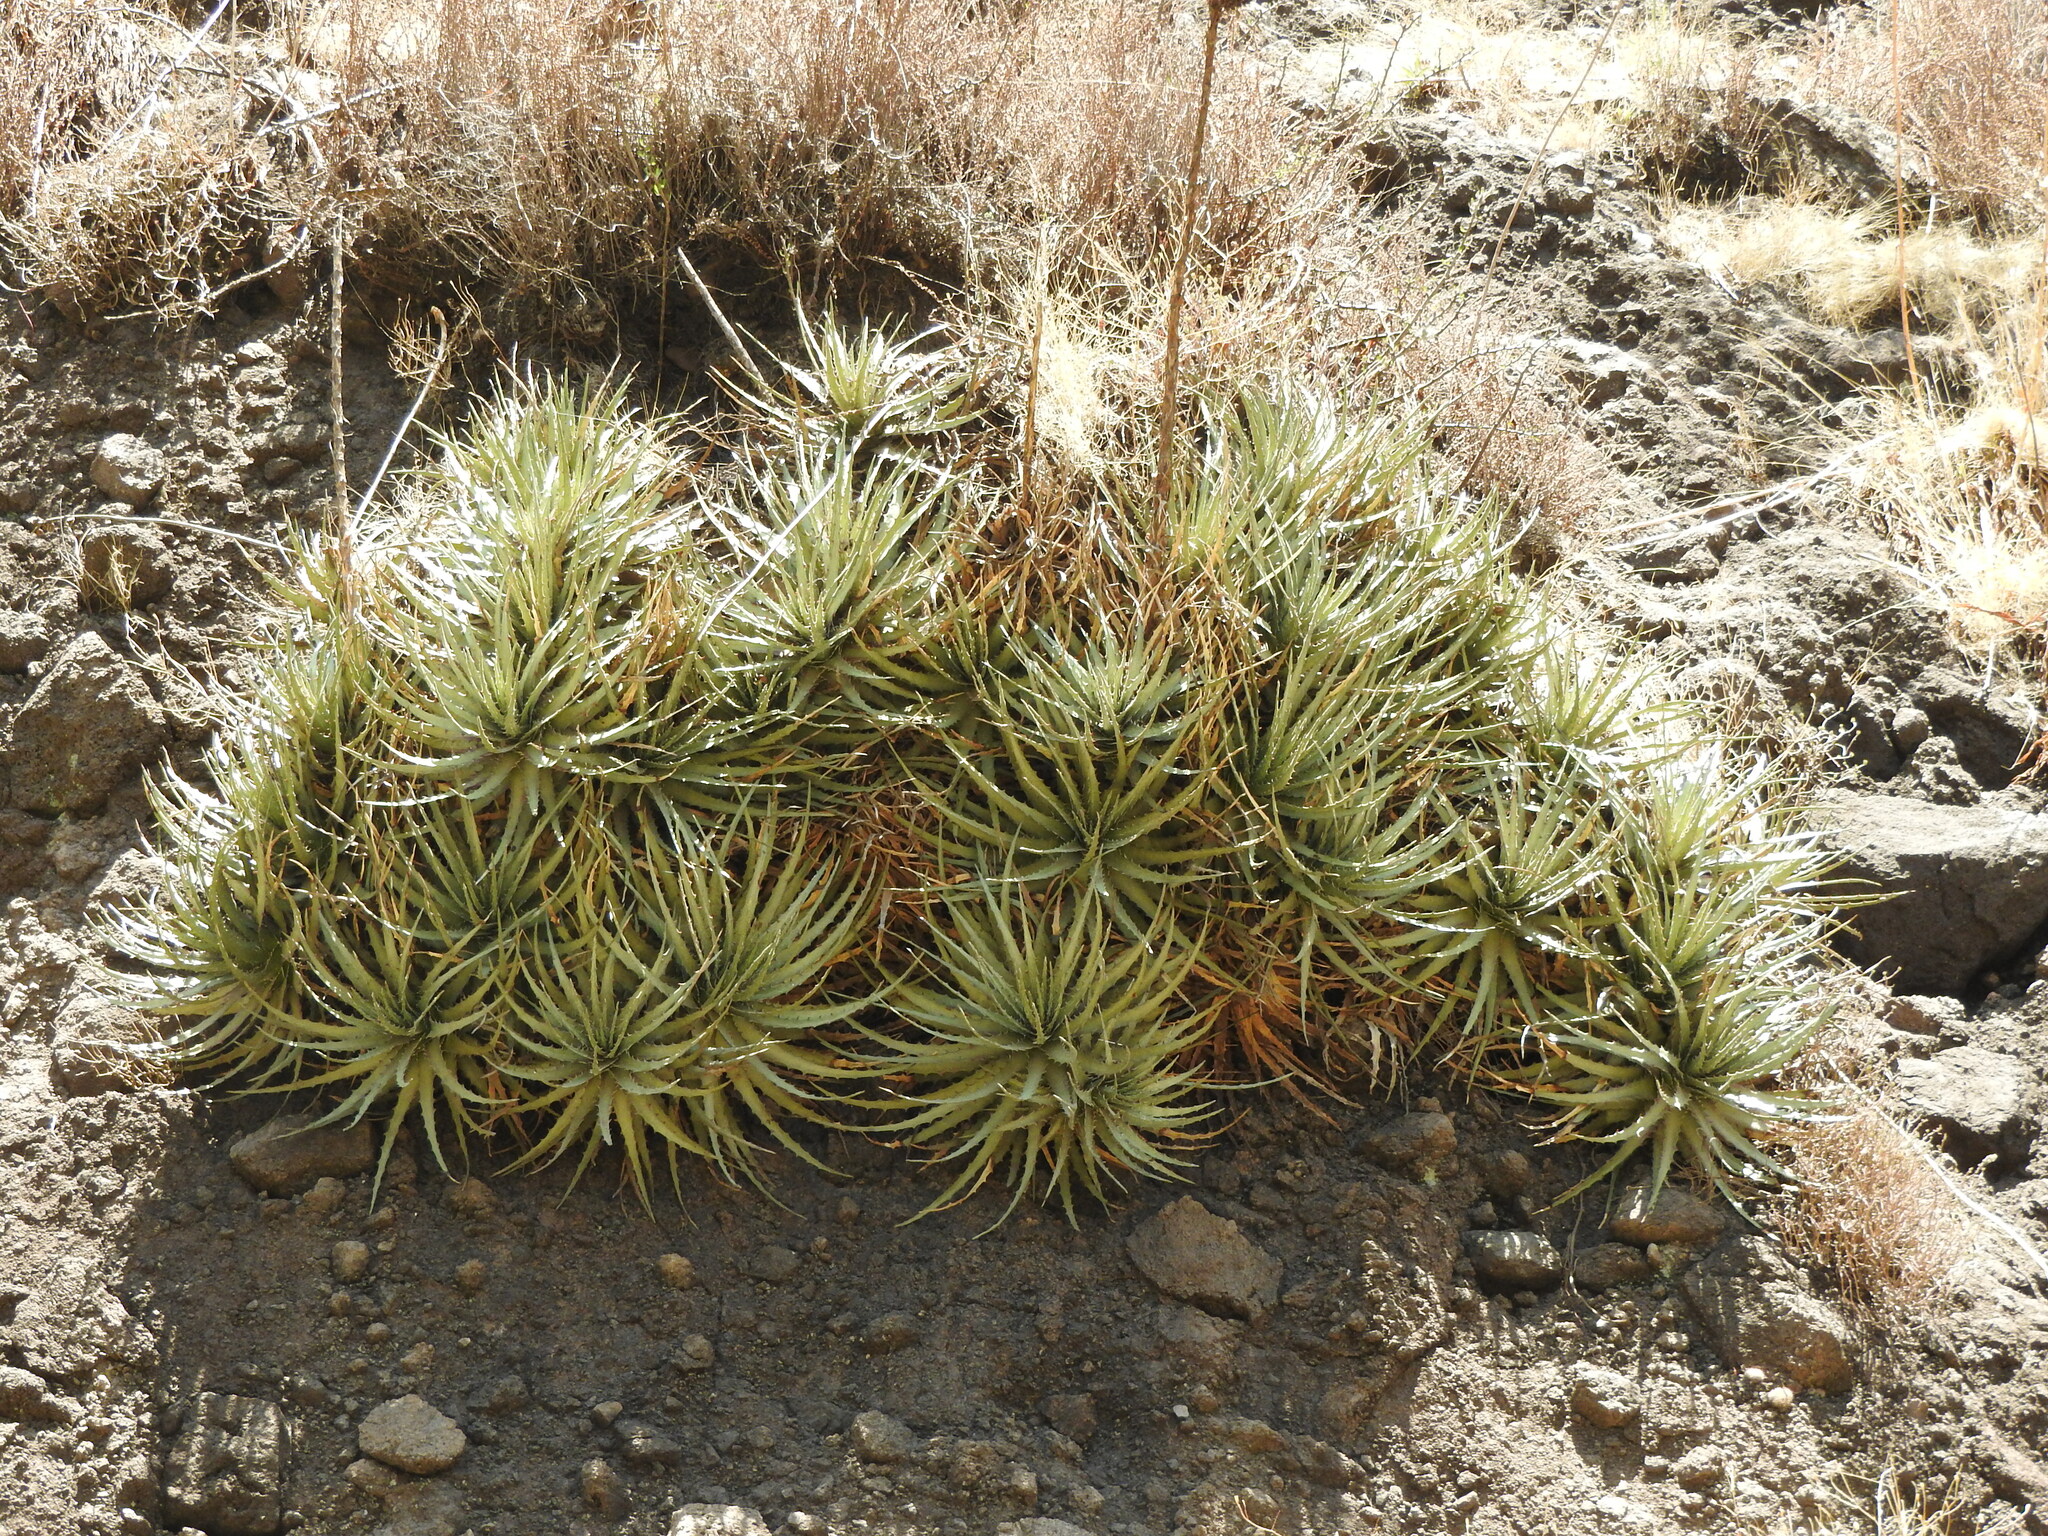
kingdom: Plantae
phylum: Tracheophyta
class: Liliopsida
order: Poales
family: Bromeliaceae
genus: Hechtia
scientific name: Hechtia glomerata
